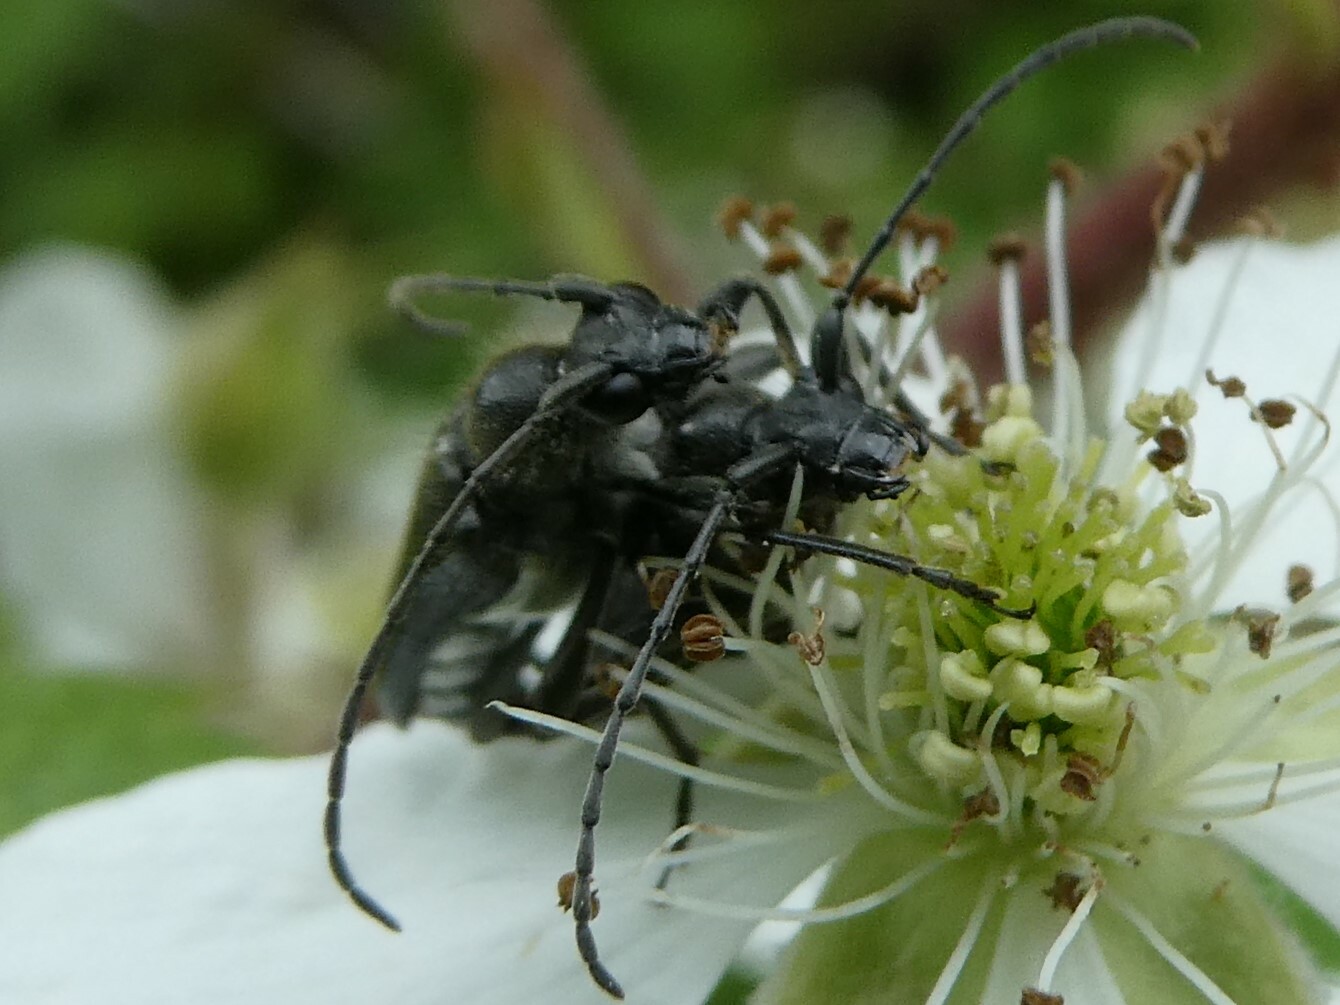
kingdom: Animalia
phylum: Arthropoda
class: Insecta
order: Coleoptera
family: Cerambycidae
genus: Anoplodera
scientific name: Anoplodera pubera
